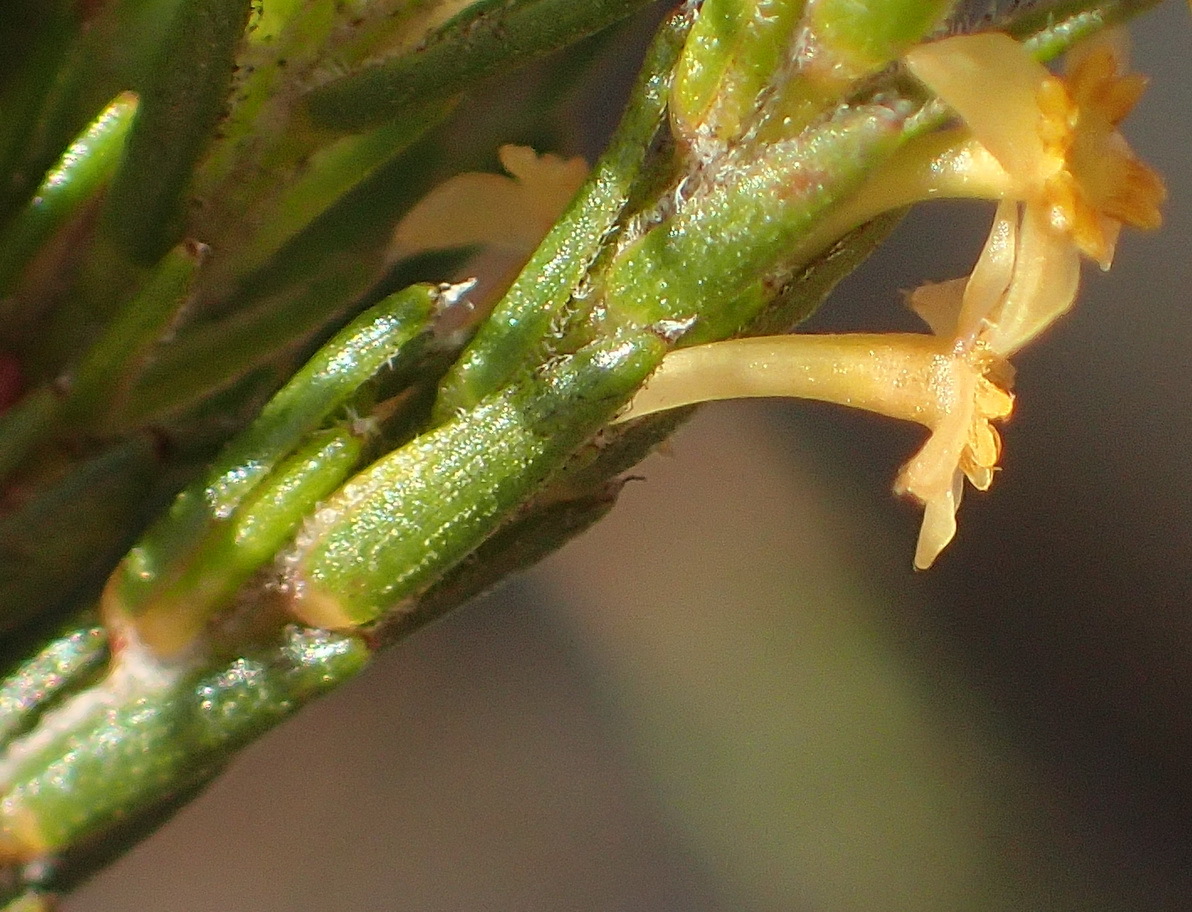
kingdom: Plantae
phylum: Tracheophyta
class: Magnoliopsida
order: Malvales
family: Thymelaeaceae
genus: Struthiola
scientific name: Struthiola parviflora
